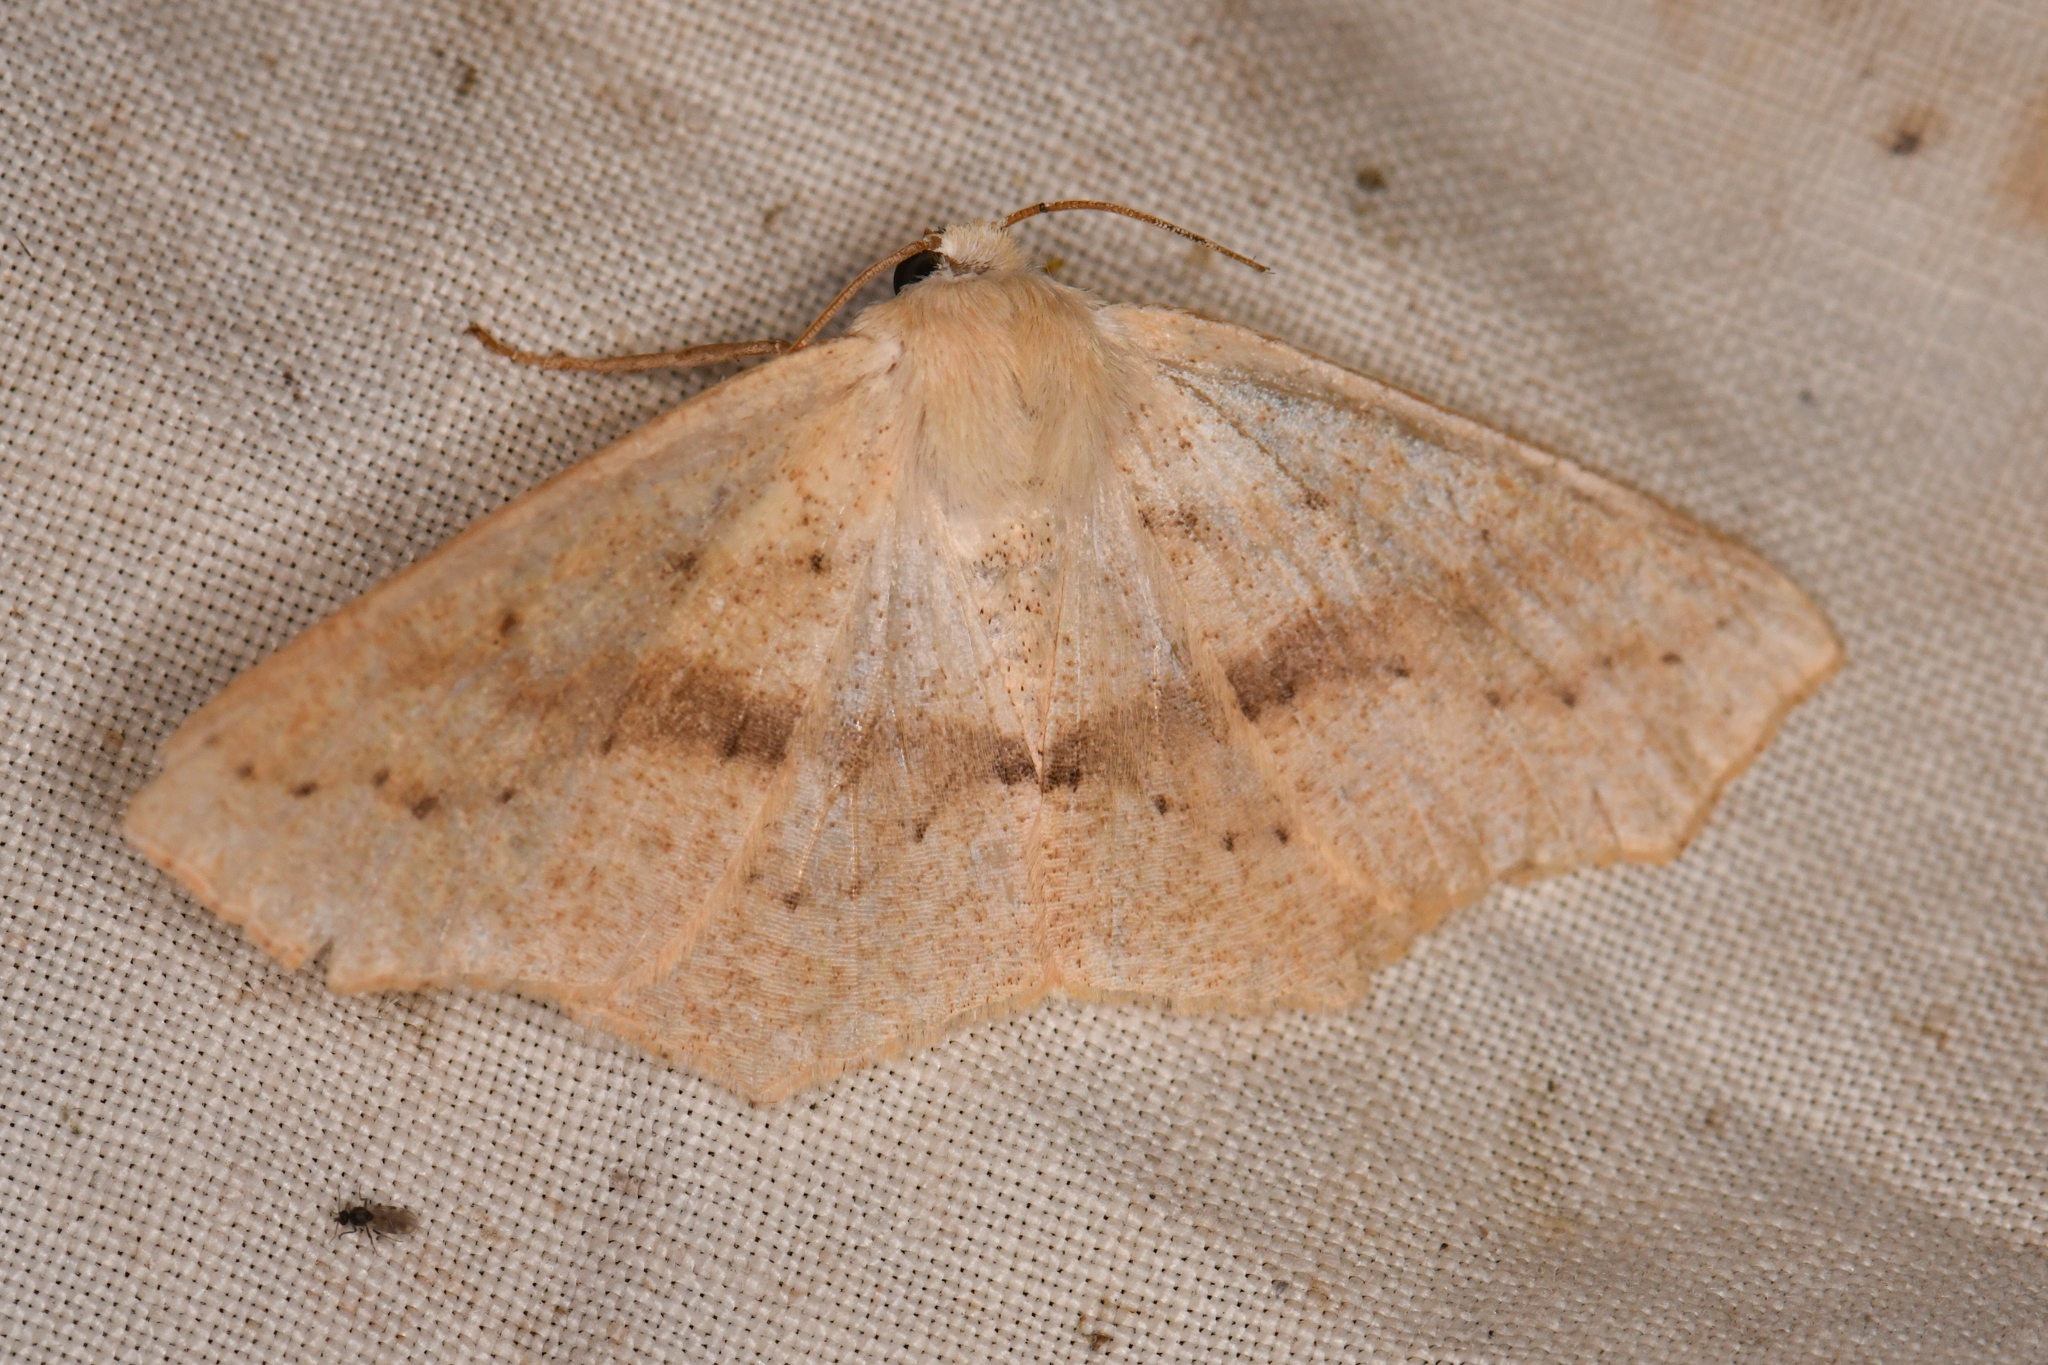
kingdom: Animalia
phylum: Arthropoda
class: Insecta
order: Lepidoptera
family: Geometridae
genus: Sabulodes
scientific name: Sabulodes aegrotata
